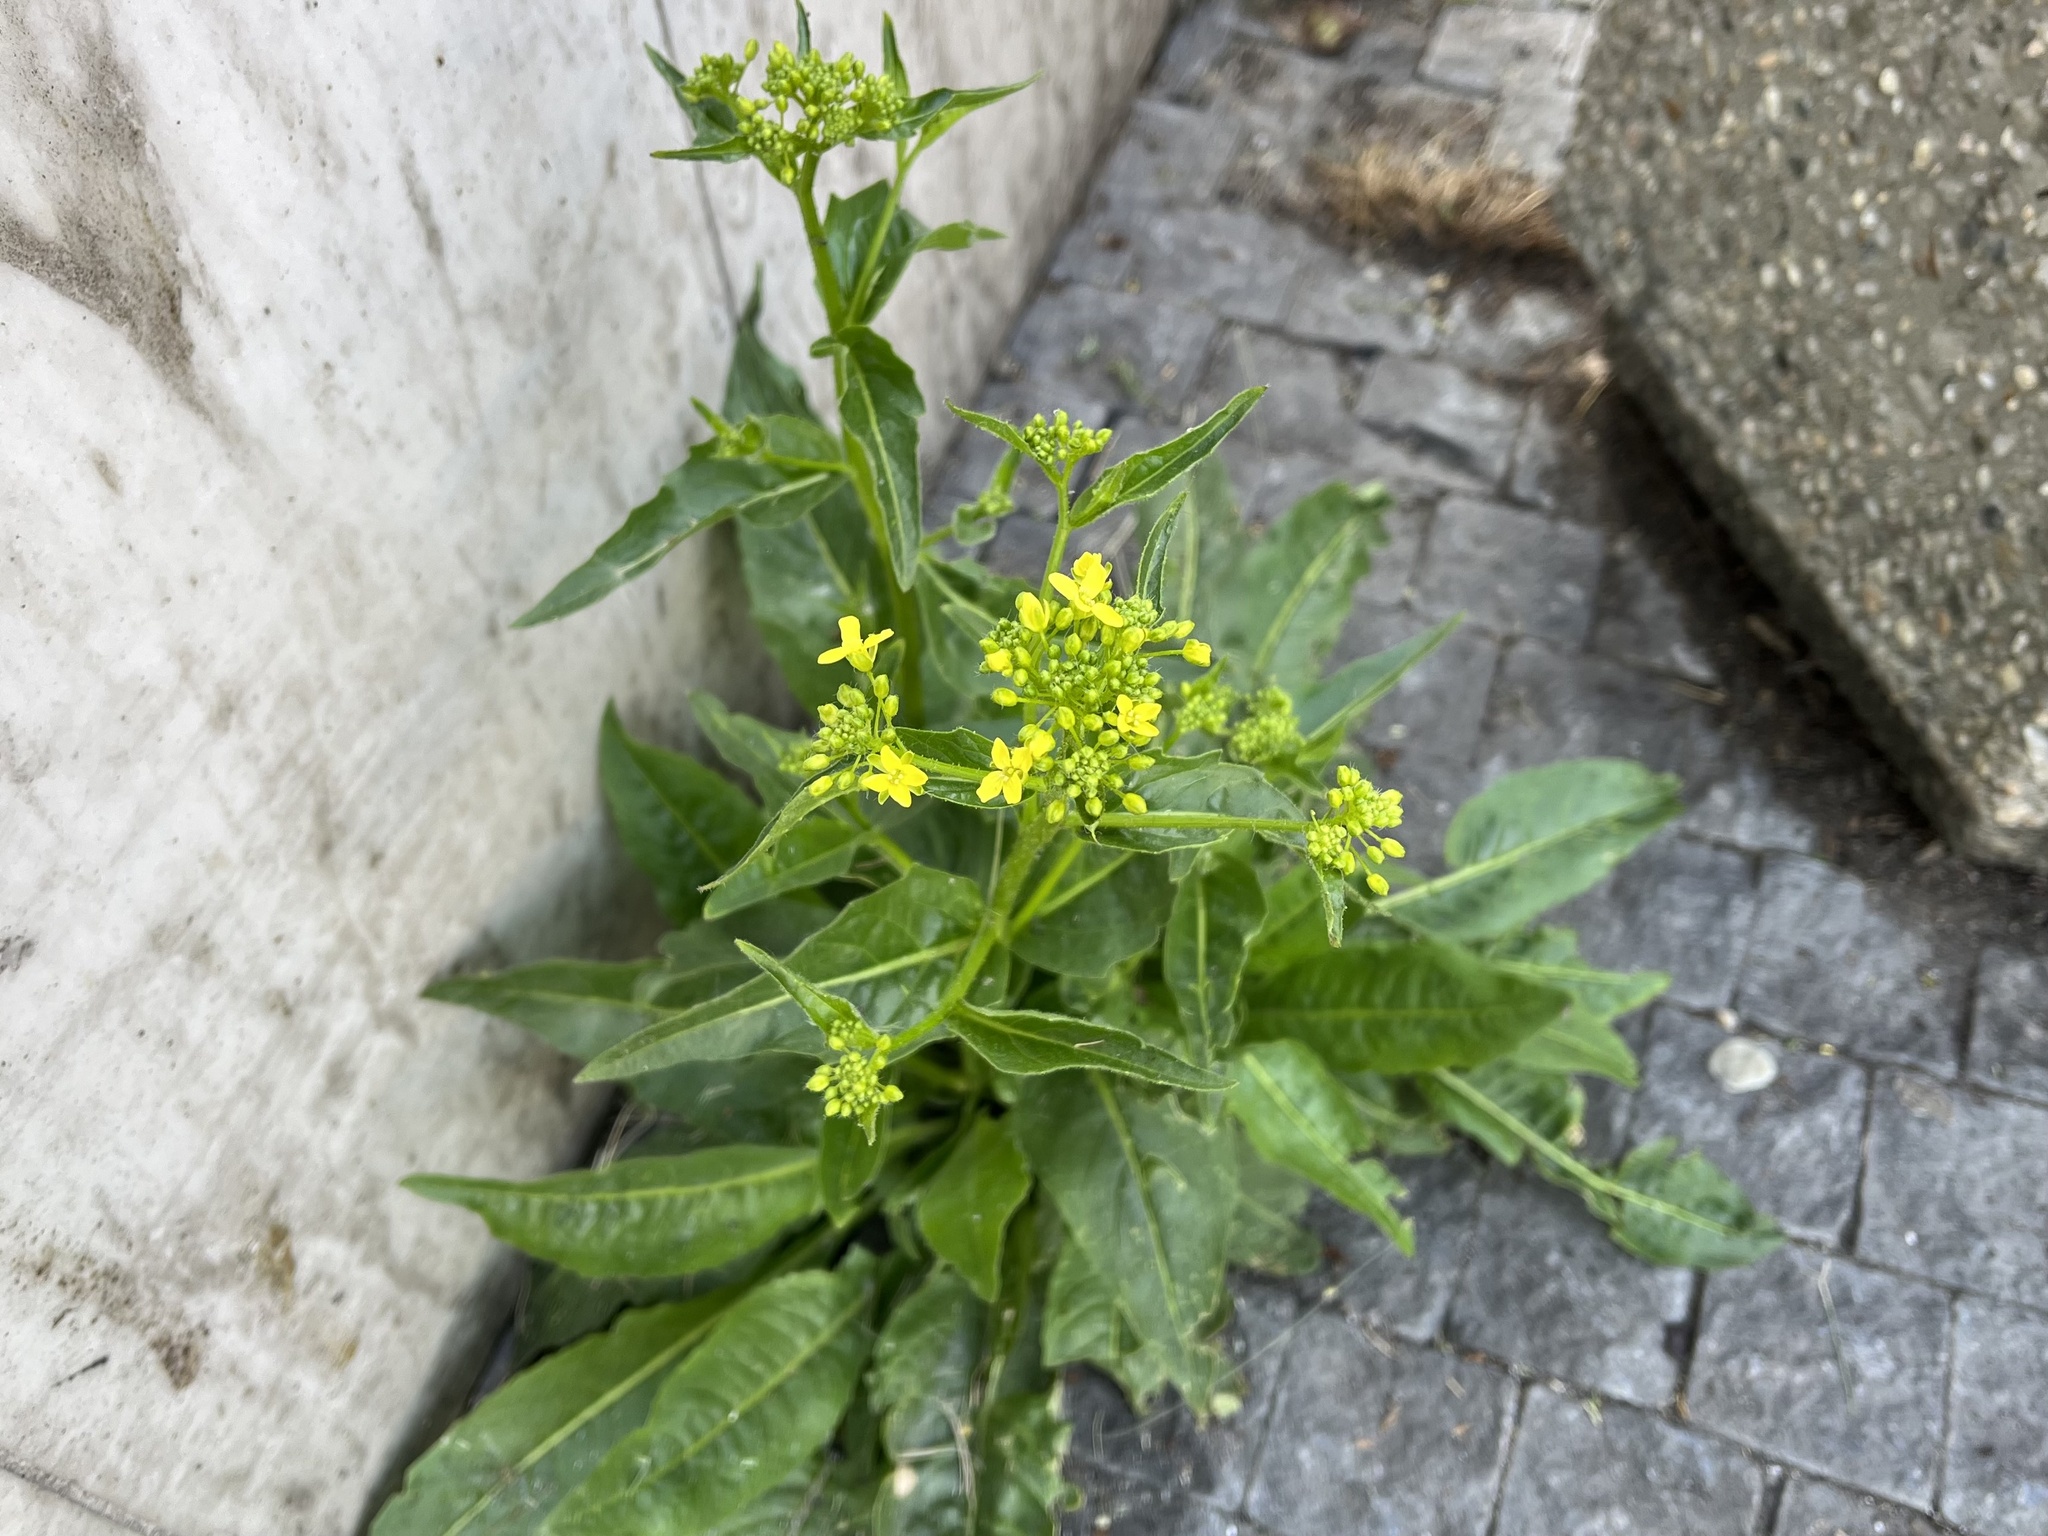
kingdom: Plantae
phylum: Tracheophyta
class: Magnoliopsida
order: Brassicales
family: Brassicaceae
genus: Bunias
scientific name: Bunias orientalis
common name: Warty-cabbage
